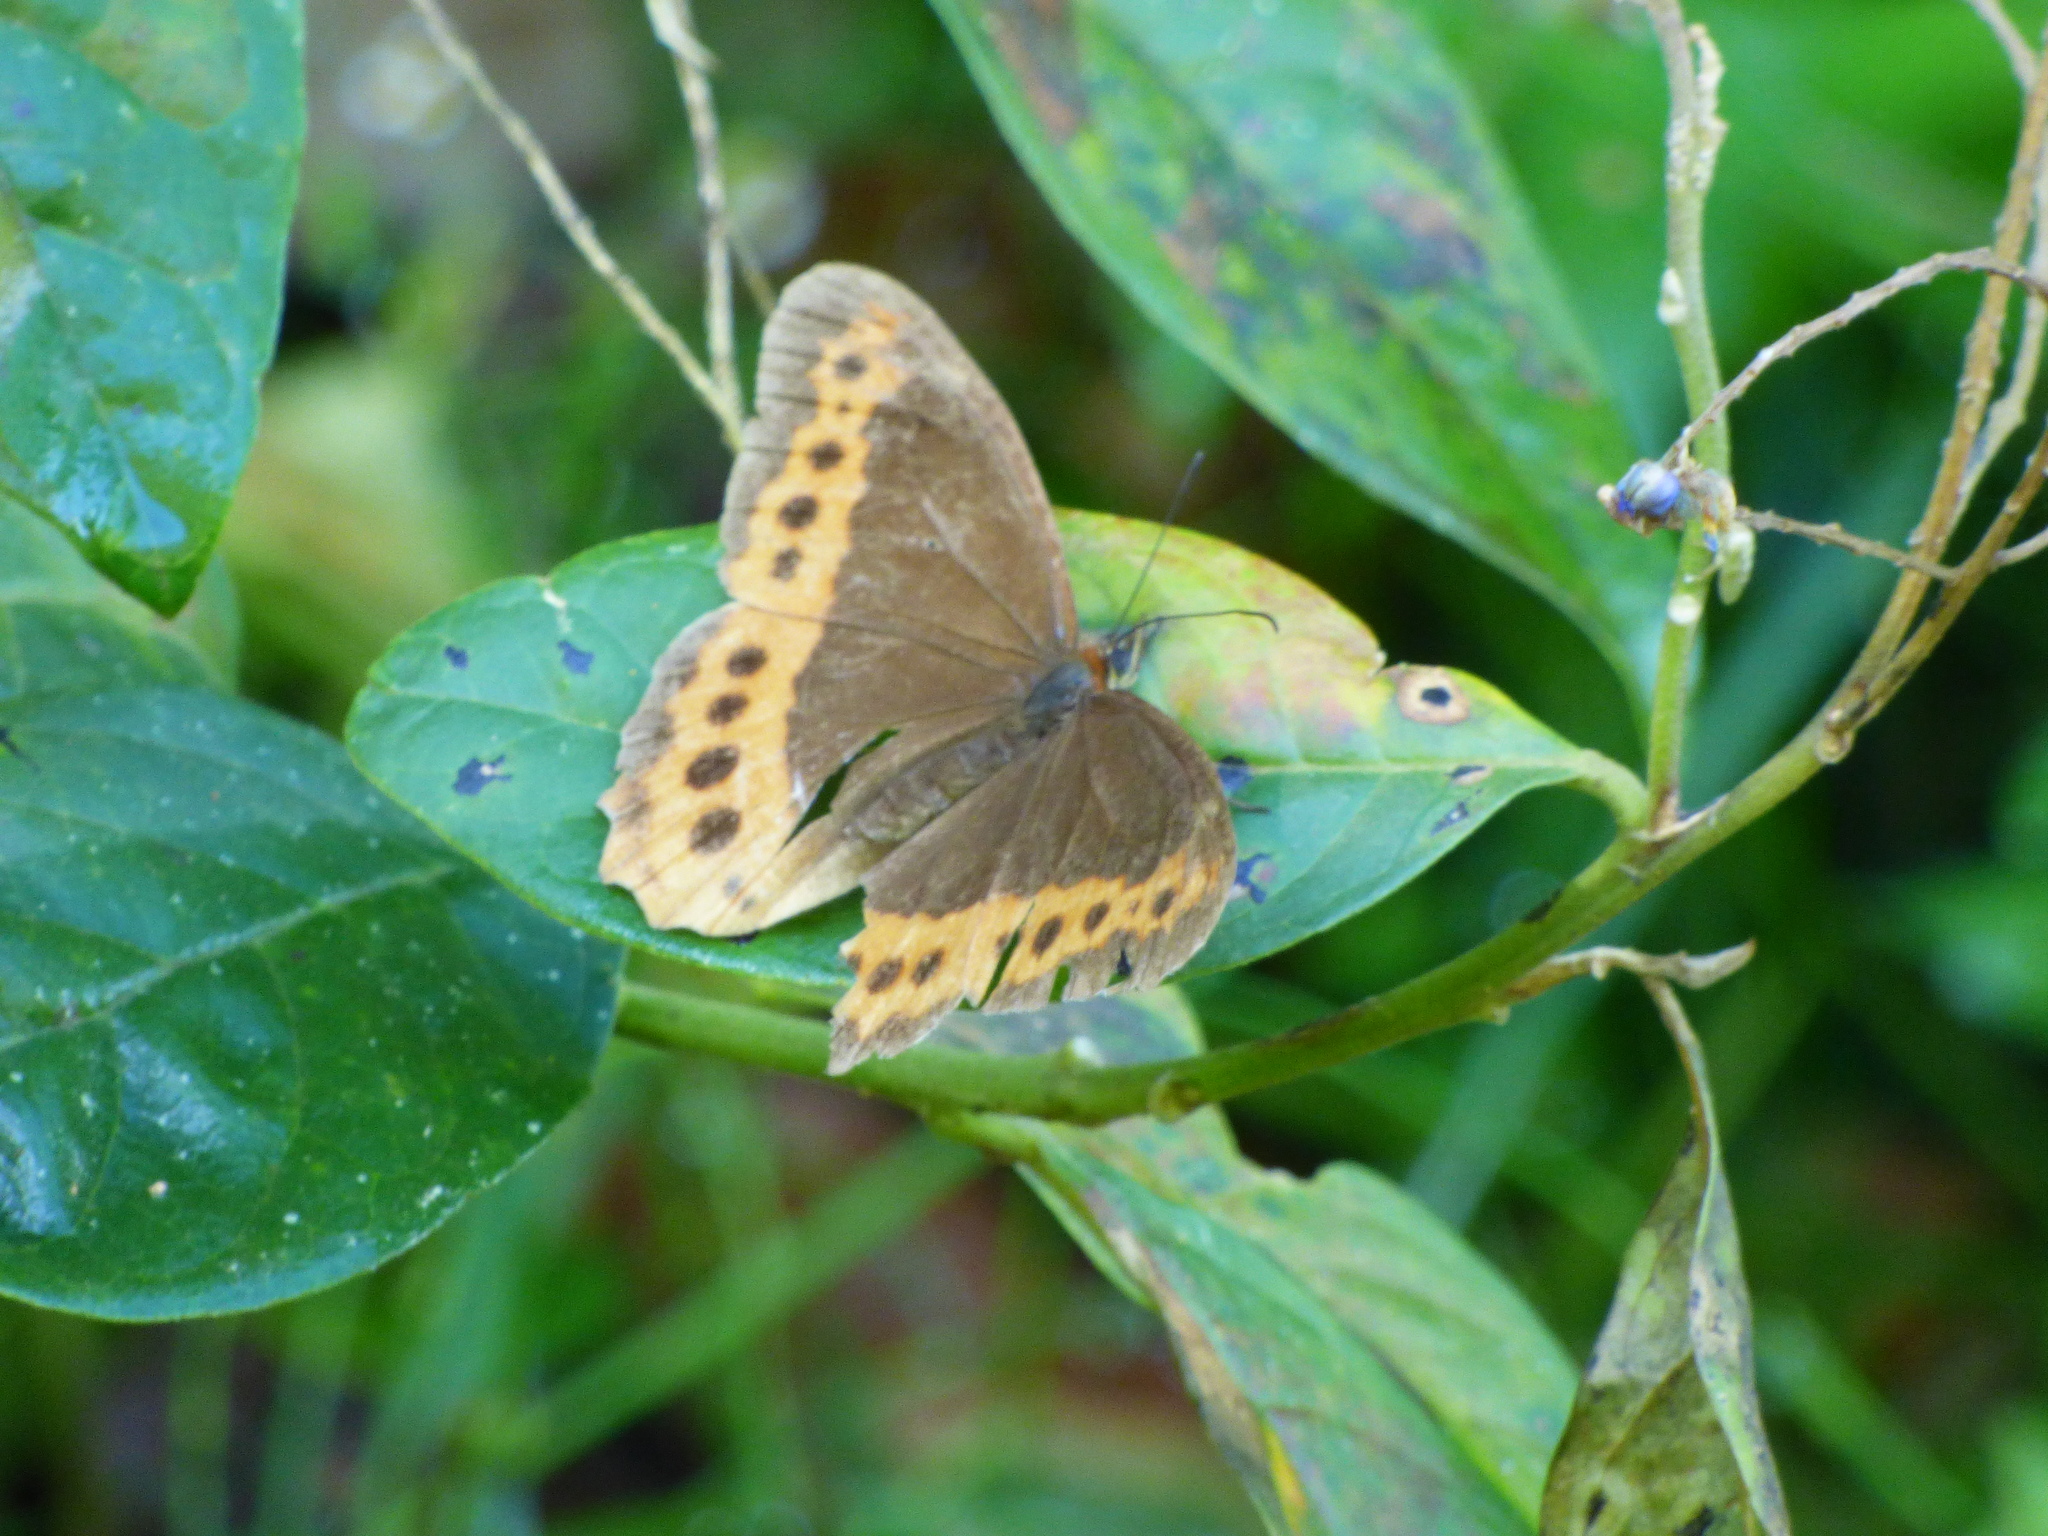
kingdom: Animalia
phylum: Arthropoda
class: Insecta
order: Lepidoptera
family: Nymphalidae
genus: Oxeoschistus
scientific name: Oxeoschistus puerta
